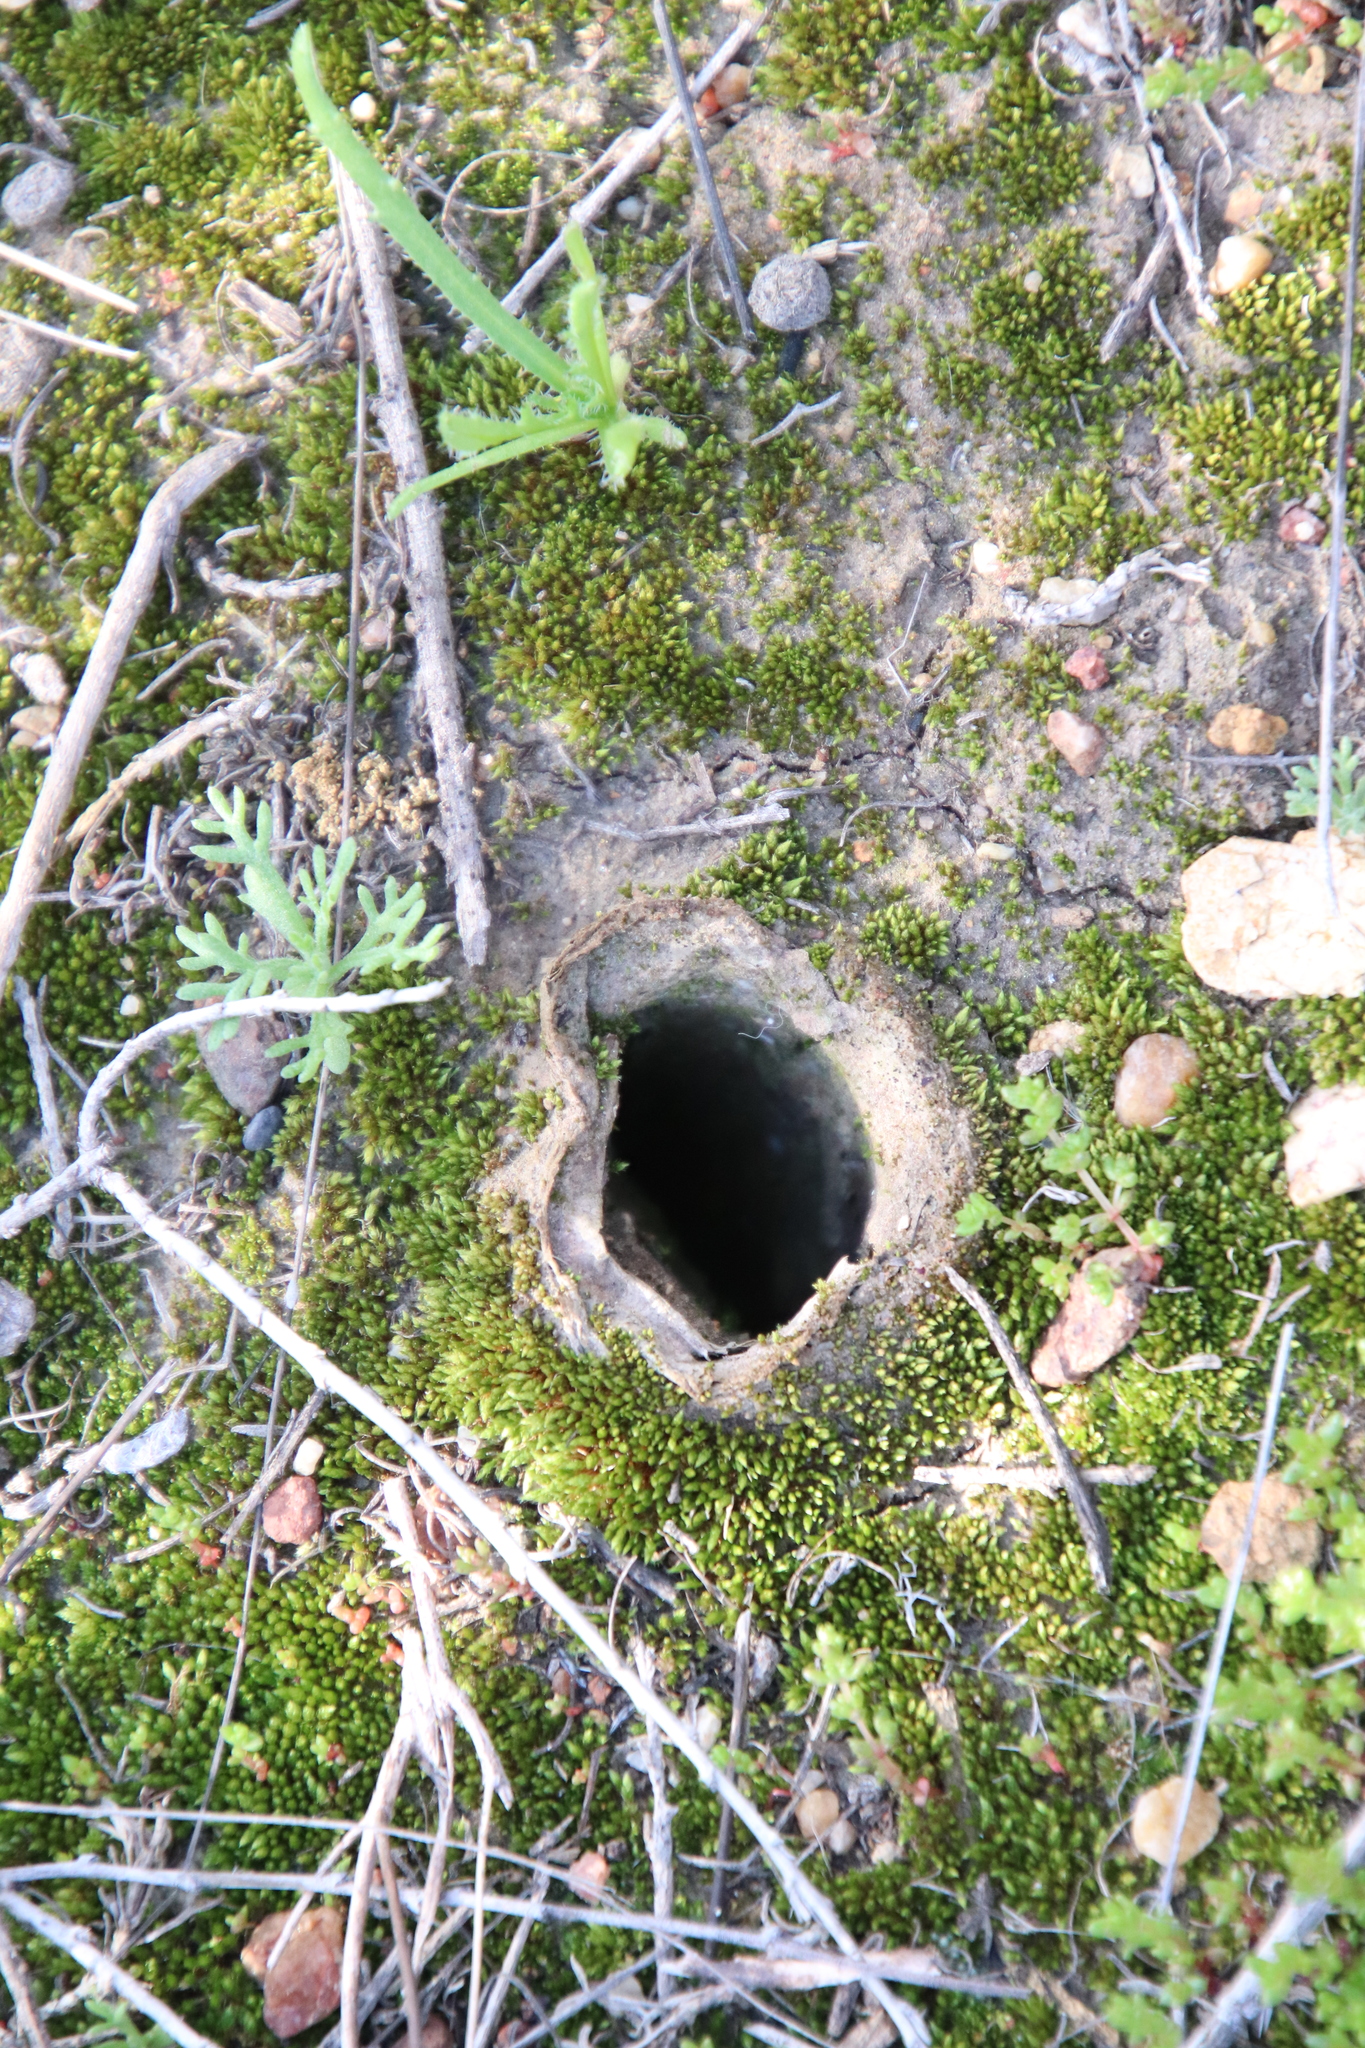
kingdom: Animalia
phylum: Arthropoda
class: Arachnida
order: Araneae
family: Halonoproctidae
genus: Bothriocyrtum
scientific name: Bothriocyrtum californicum
